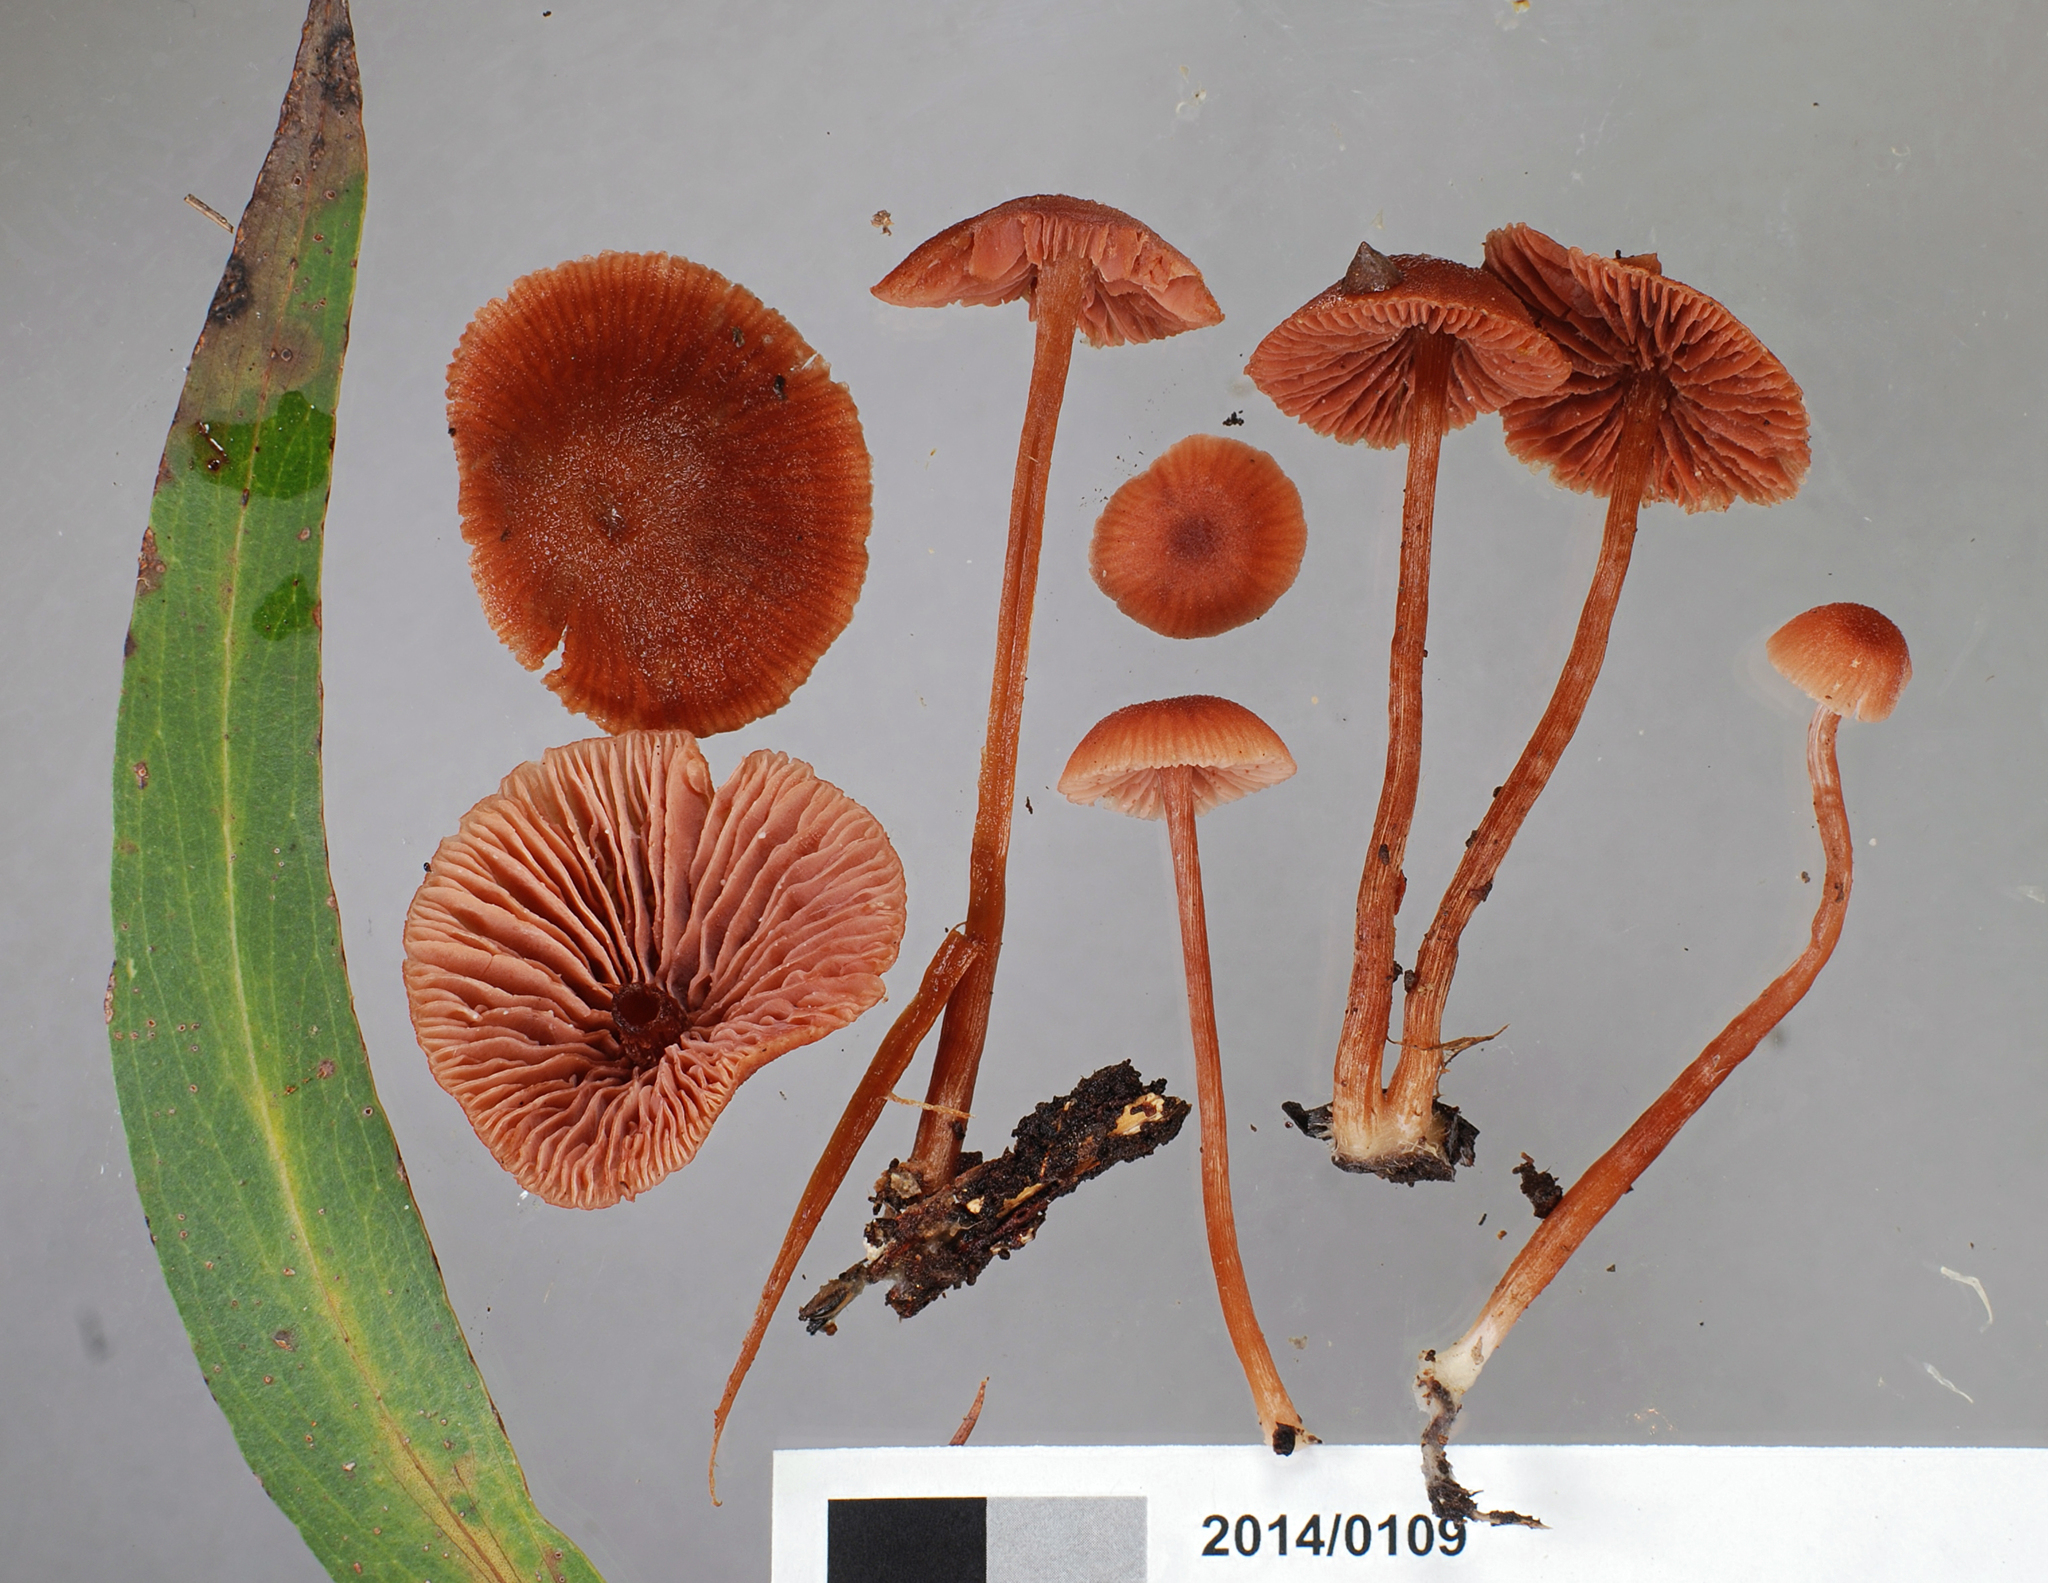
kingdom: Fungi
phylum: Basidiomycota
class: Agaricomycetes
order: Agaricales
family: Hydnangiaceae
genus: Laccaria
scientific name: Laccaria lateritia
